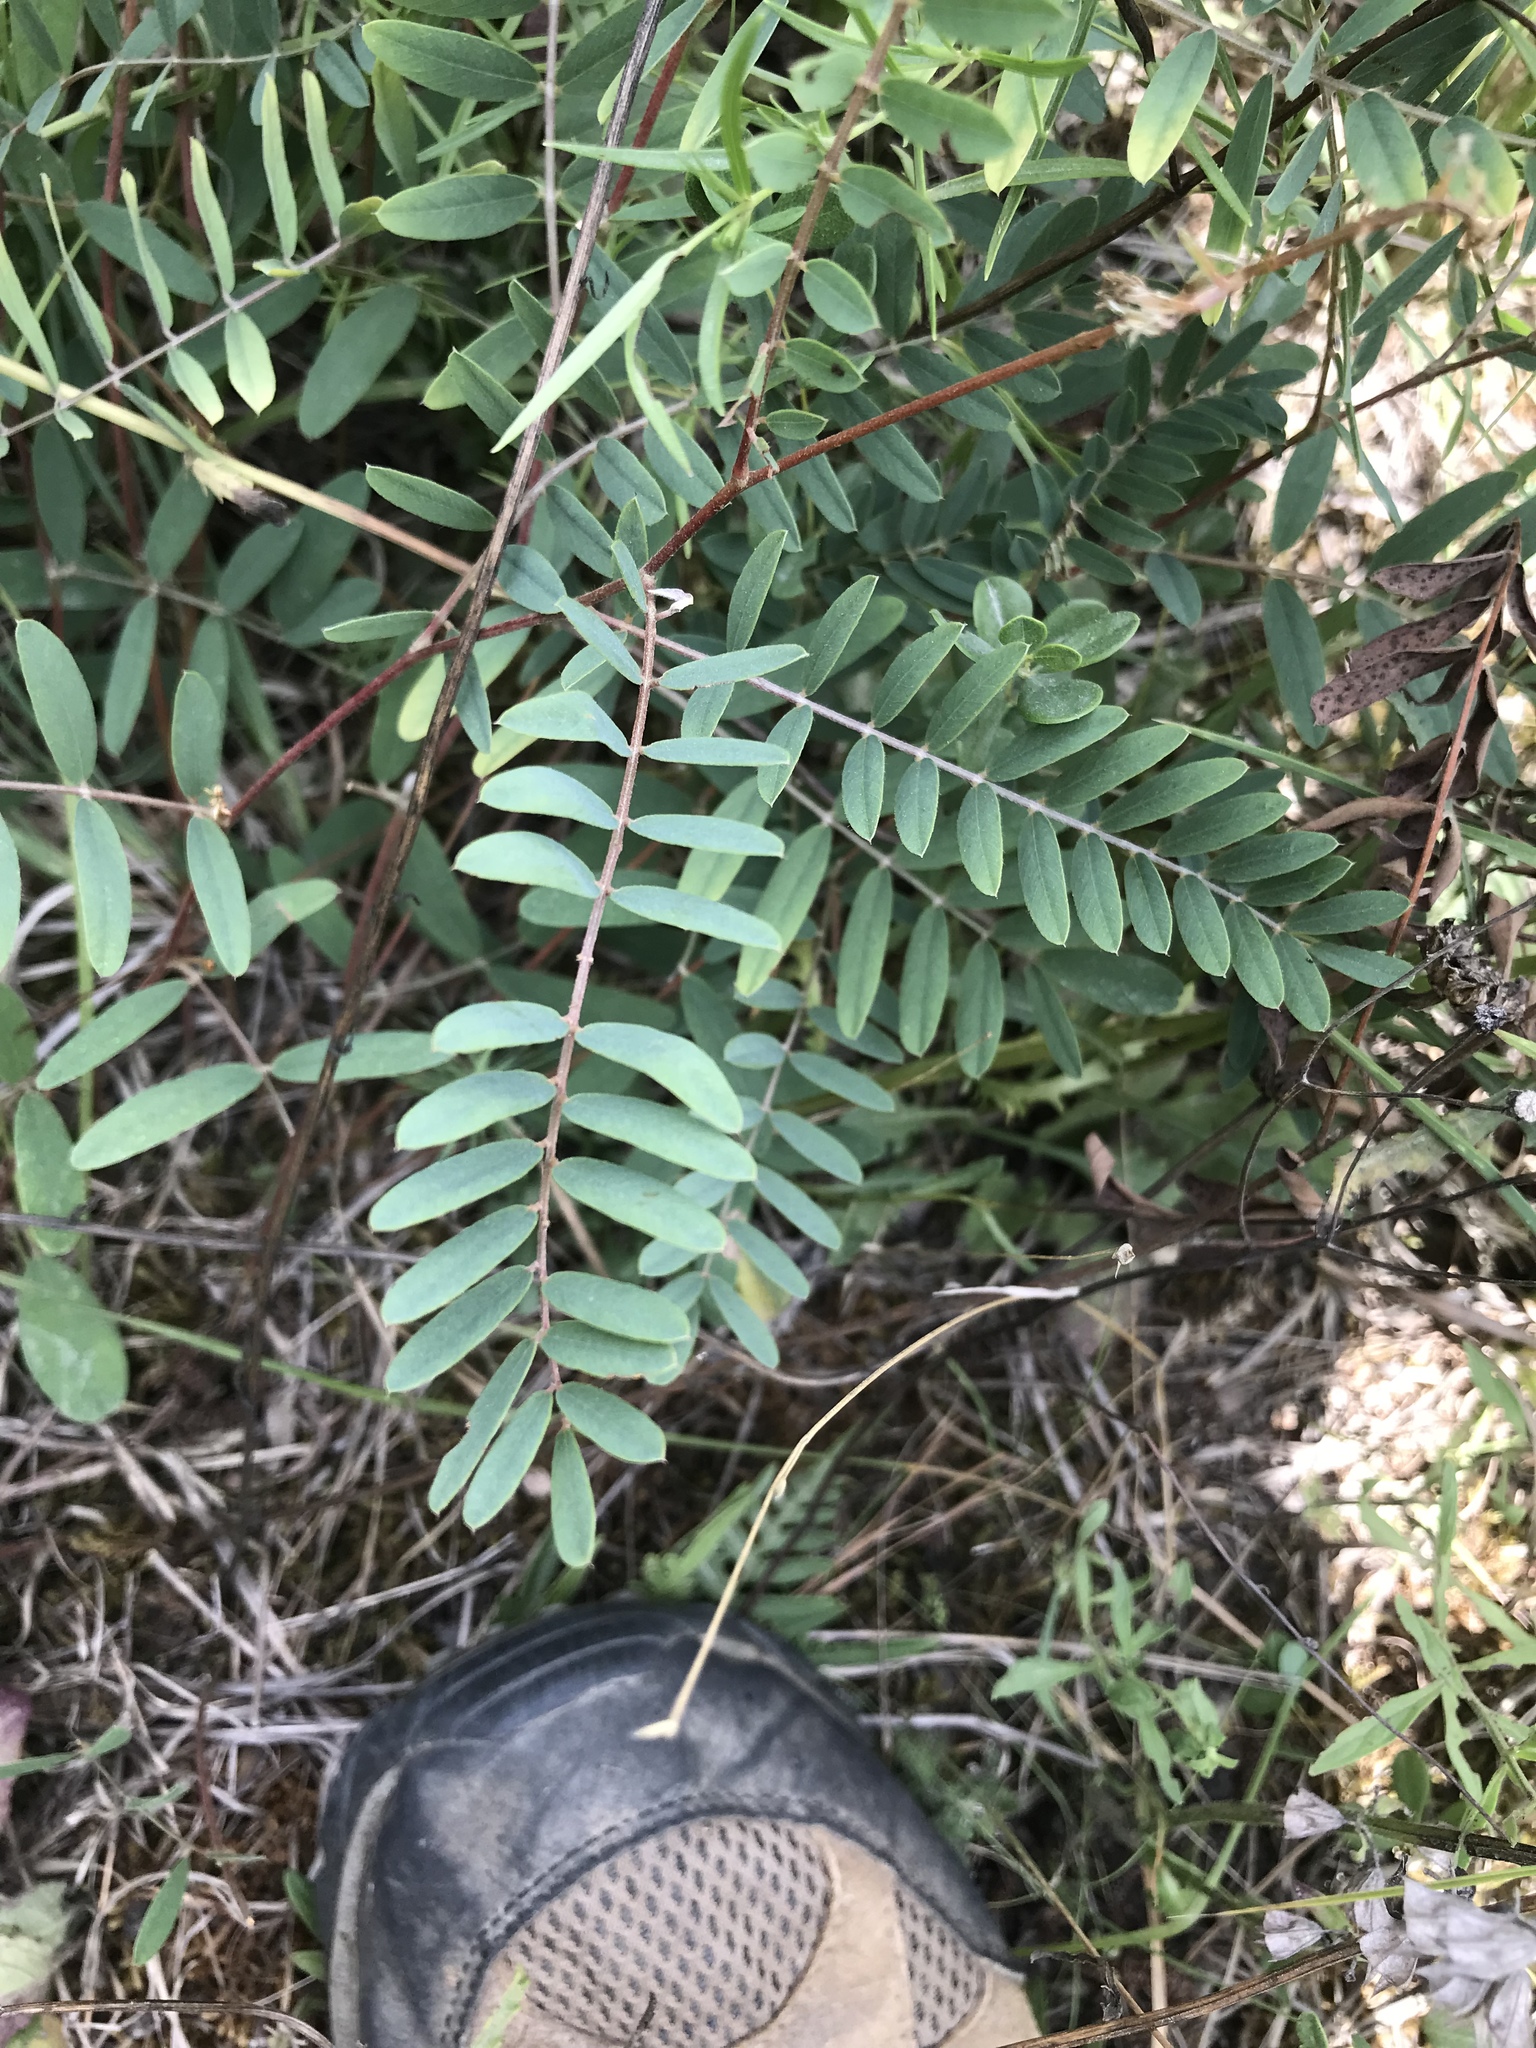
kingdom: Plantae
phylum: Tracheophyta
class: Magnoliopsida
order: Fabales
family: Fabaceae
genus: Tephrosia
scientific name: Tephrosia virginiana
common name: Rabbit-pea
